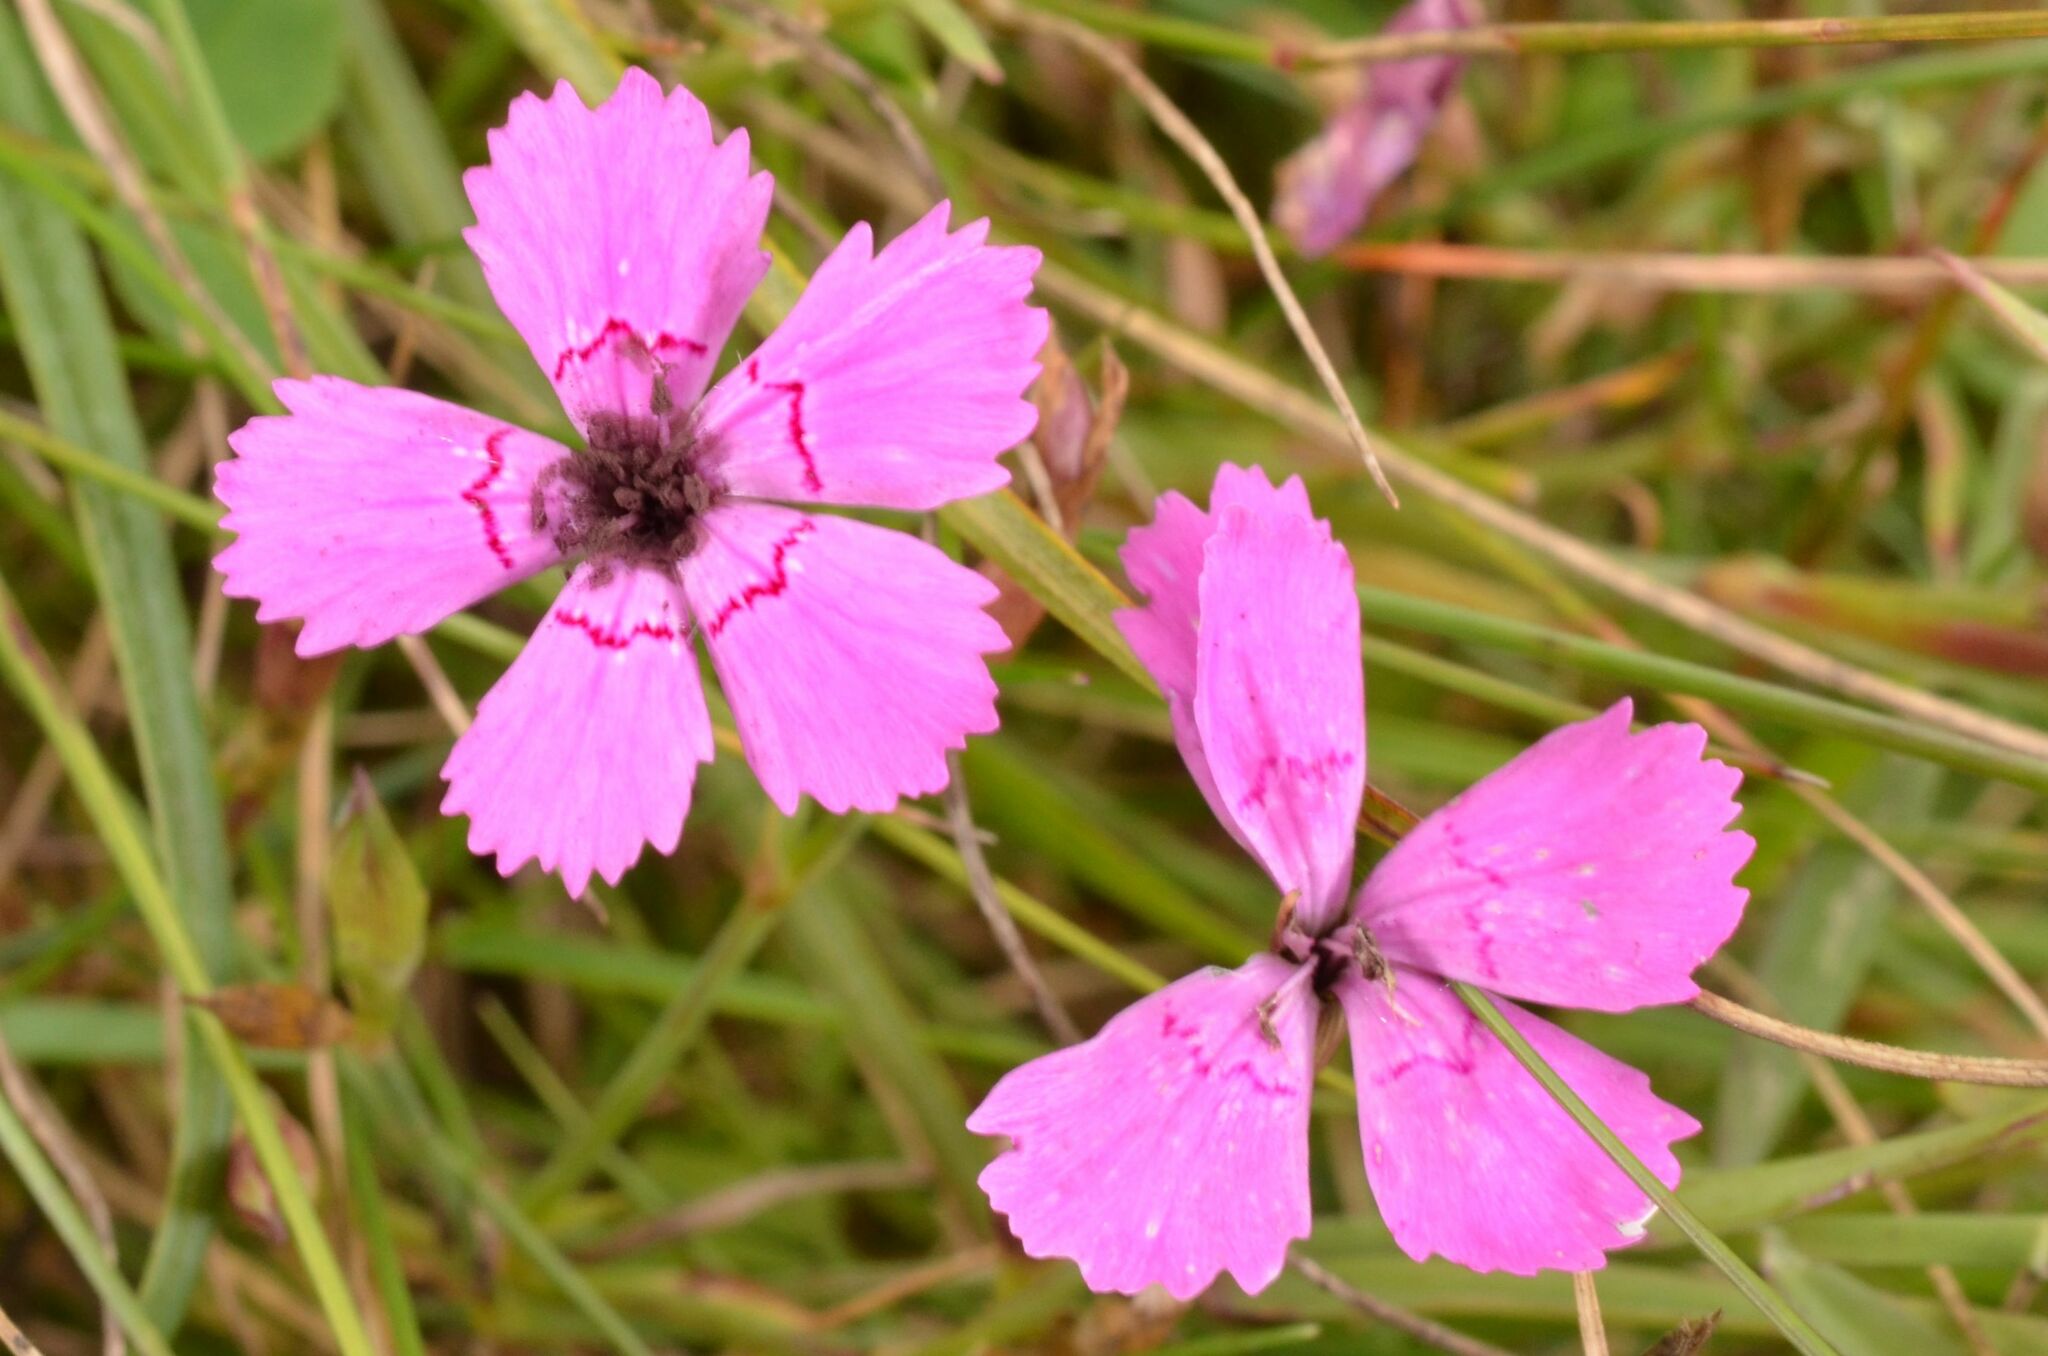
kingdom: Fungi
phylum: Basidiomycota
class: Microbotryomycetes
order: Microbotryales
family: Microbotryaceae
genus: Microbotryum
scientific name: Microbotryum dianthorum
